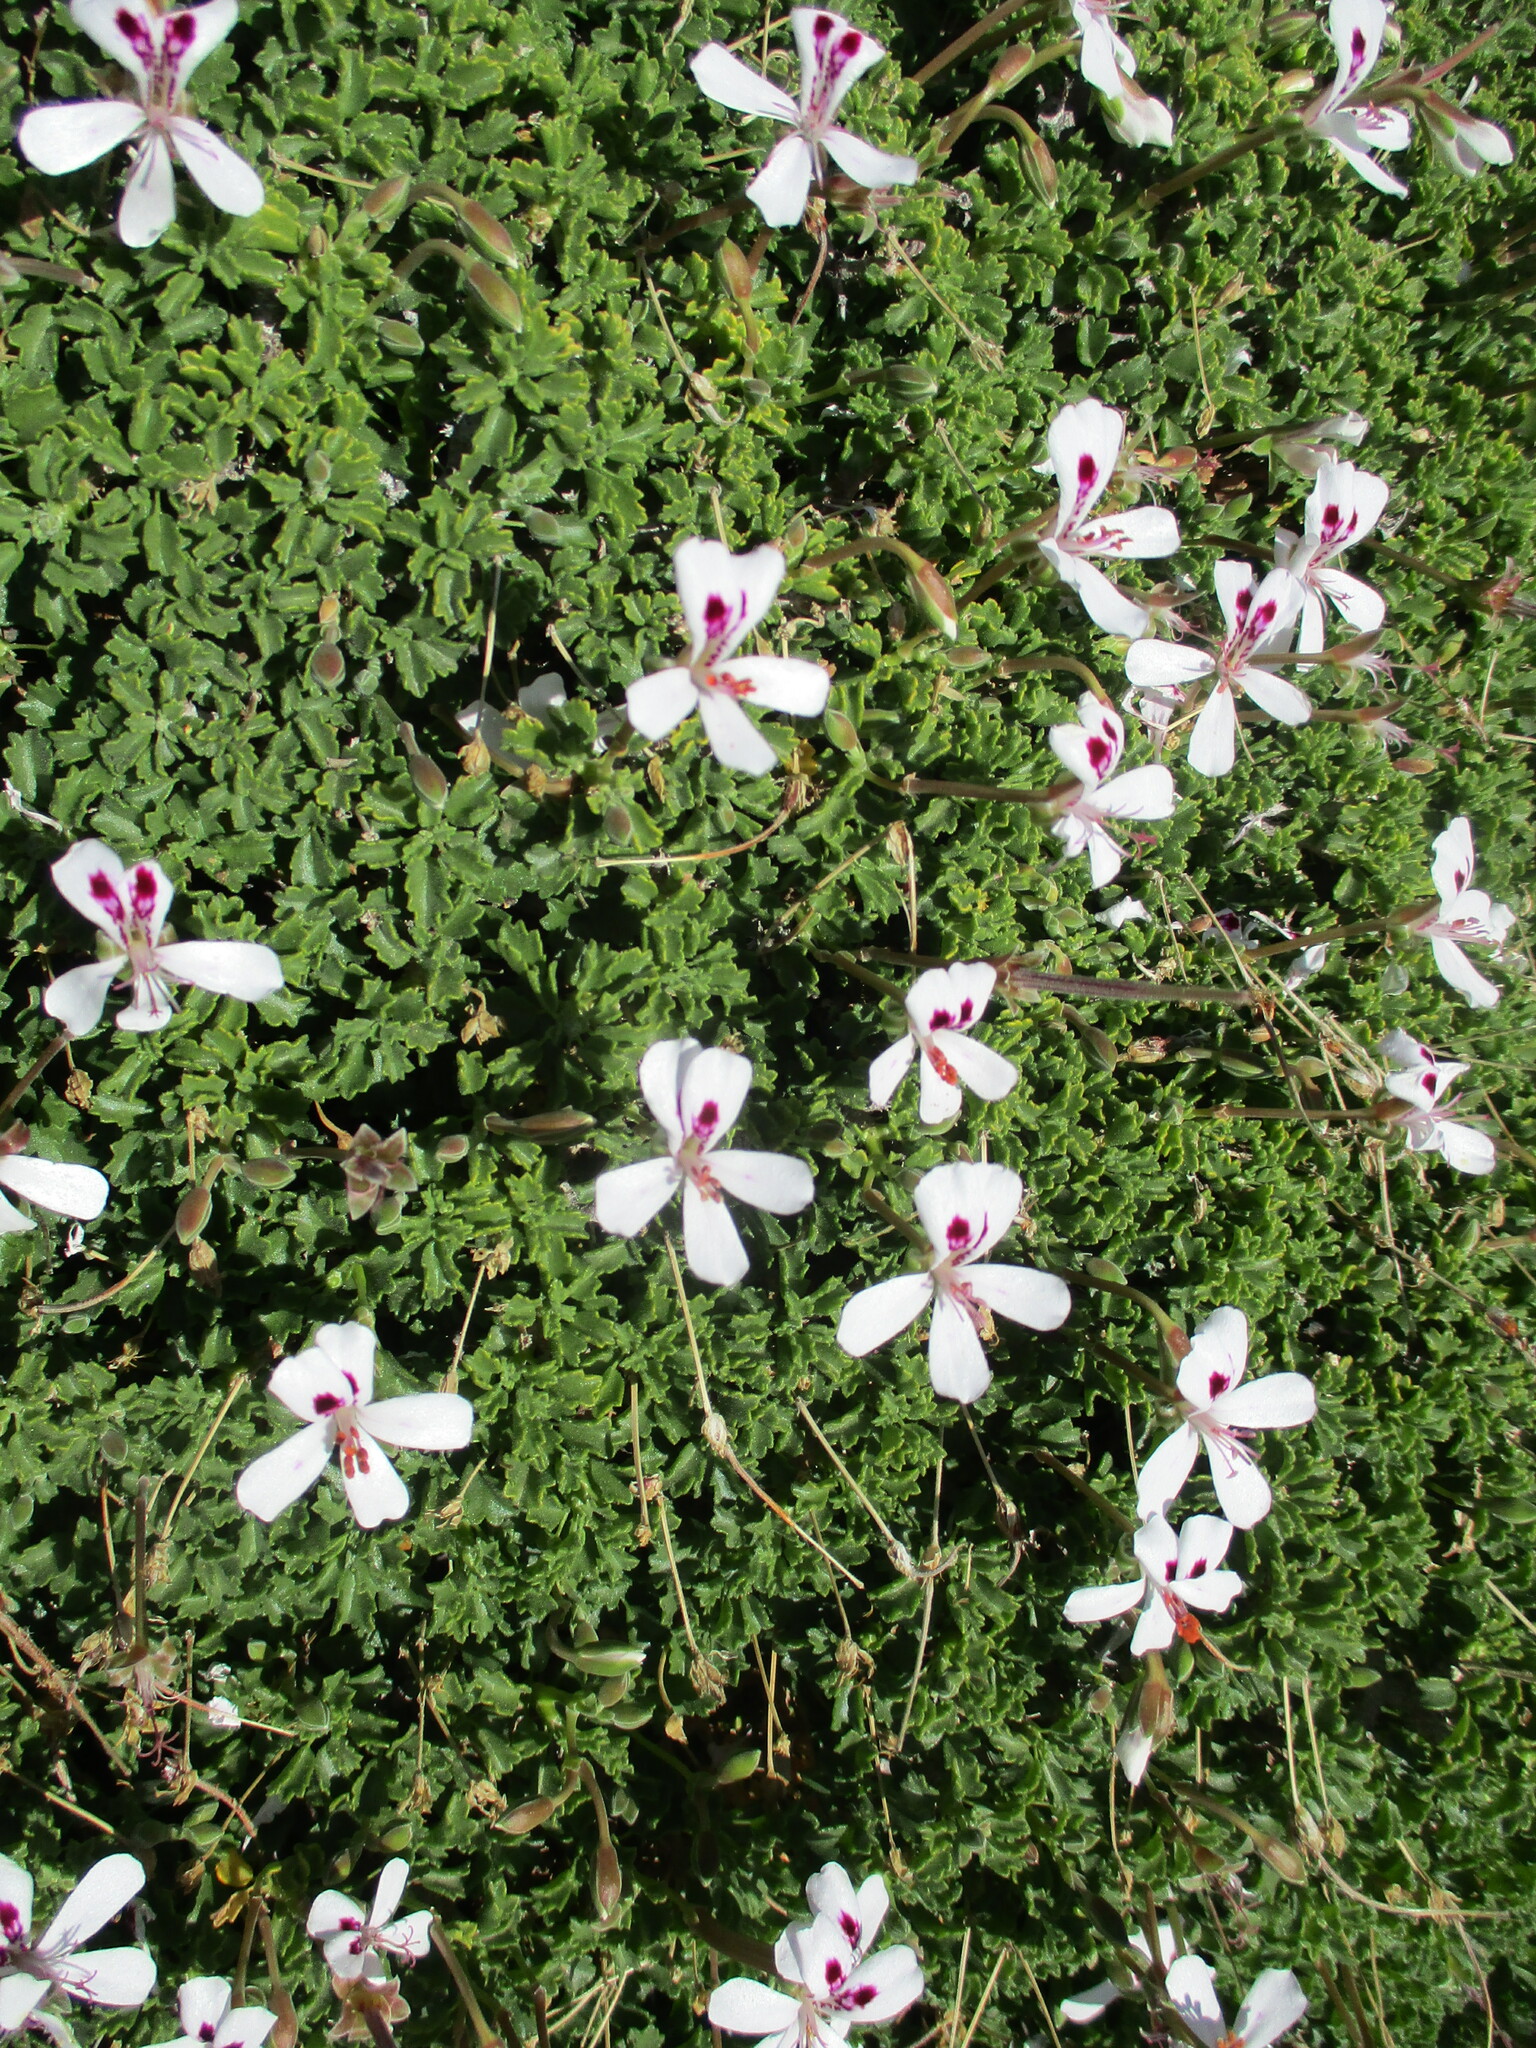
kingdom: Plantae
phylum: Tracheophyta
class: Magnoliopsida
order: Geraniales
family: Geraniaceae
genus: Pelargonium
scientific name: Pelargonium xerophyton
